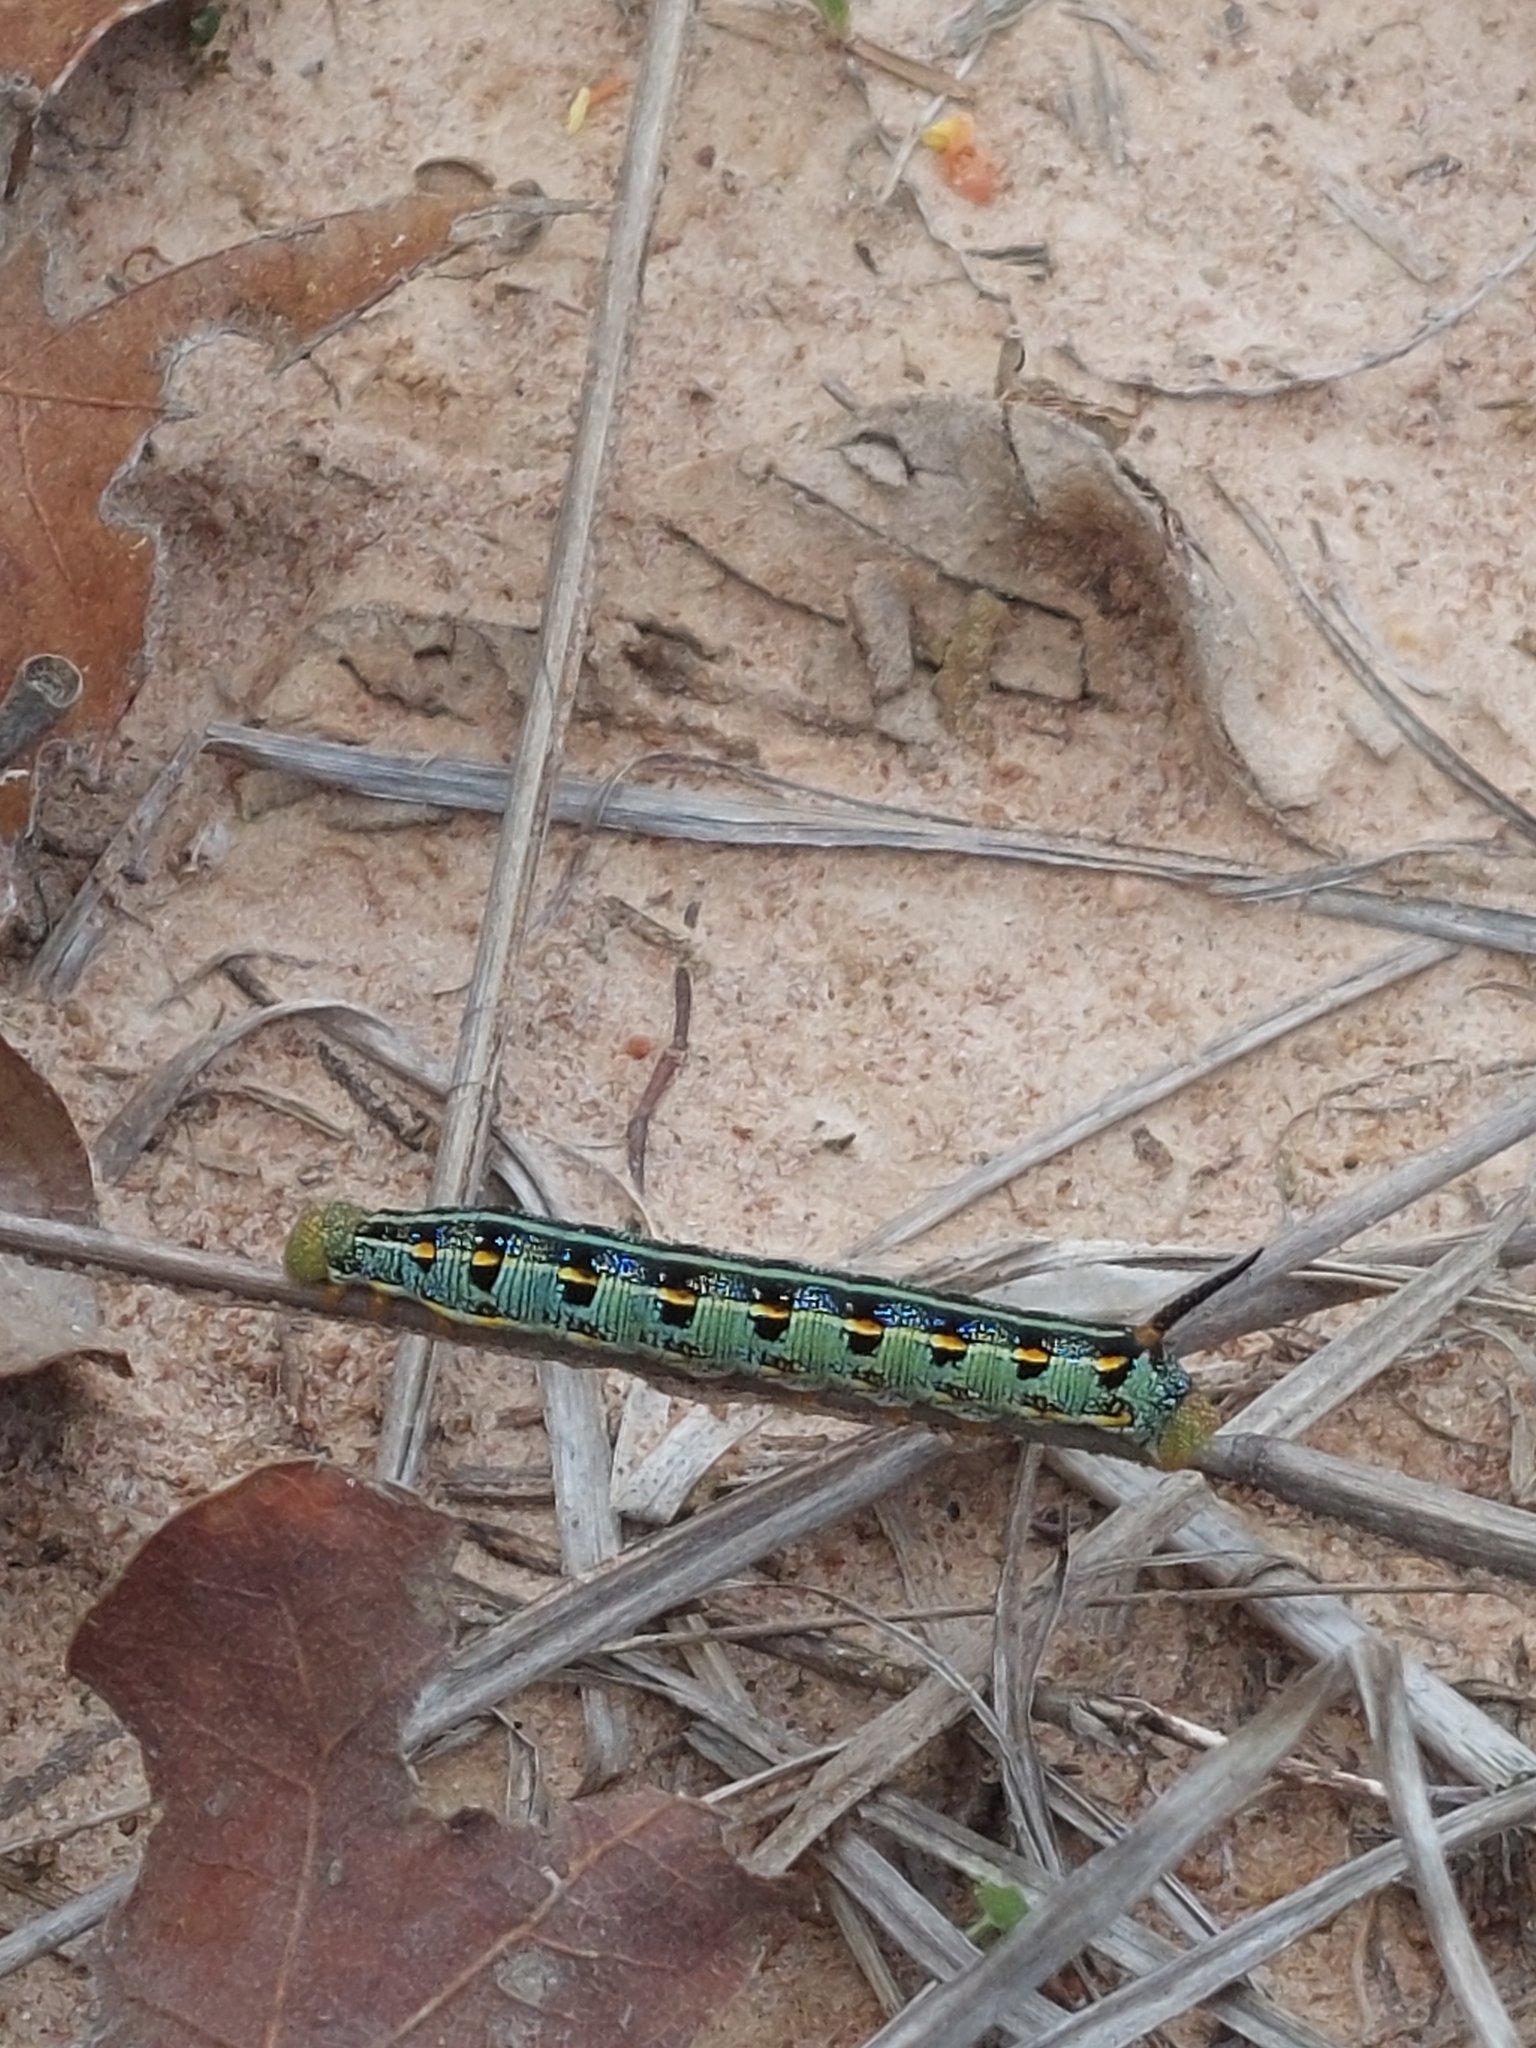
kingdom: Animalia
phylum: Arthropoda
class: Insecta
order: Lepidoptera
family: Sphingidae
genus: Hyles
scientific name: Hyles lineata
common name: White-lined sphinx
